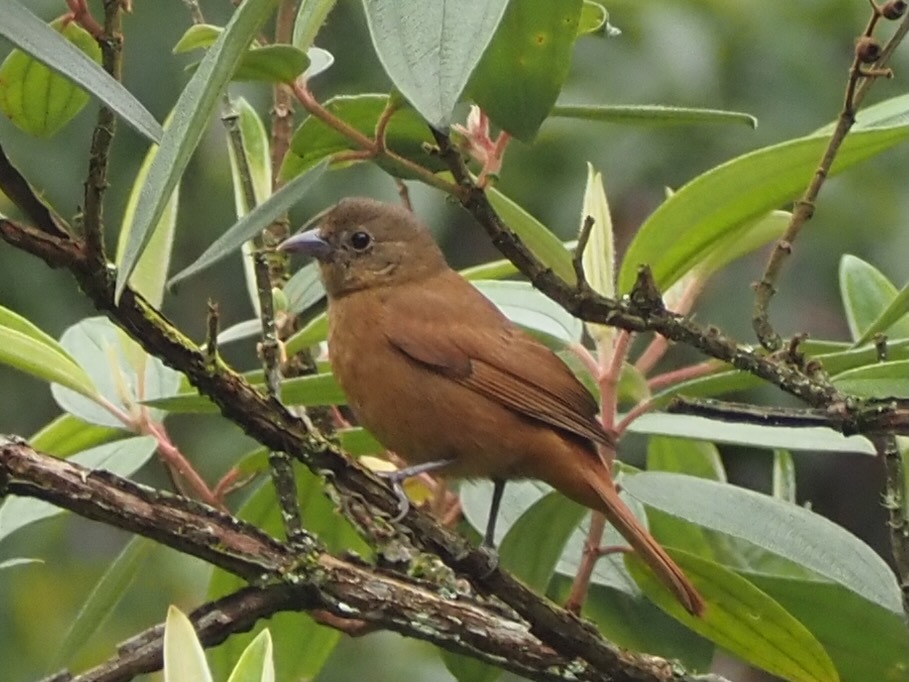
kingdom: Animalia
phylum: Chordata
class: Aves
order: Passeriformes
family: Thraupidae
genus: Tachyphonus
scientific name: Tachyphonus coronatus
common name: Ruby-crowned tanager
